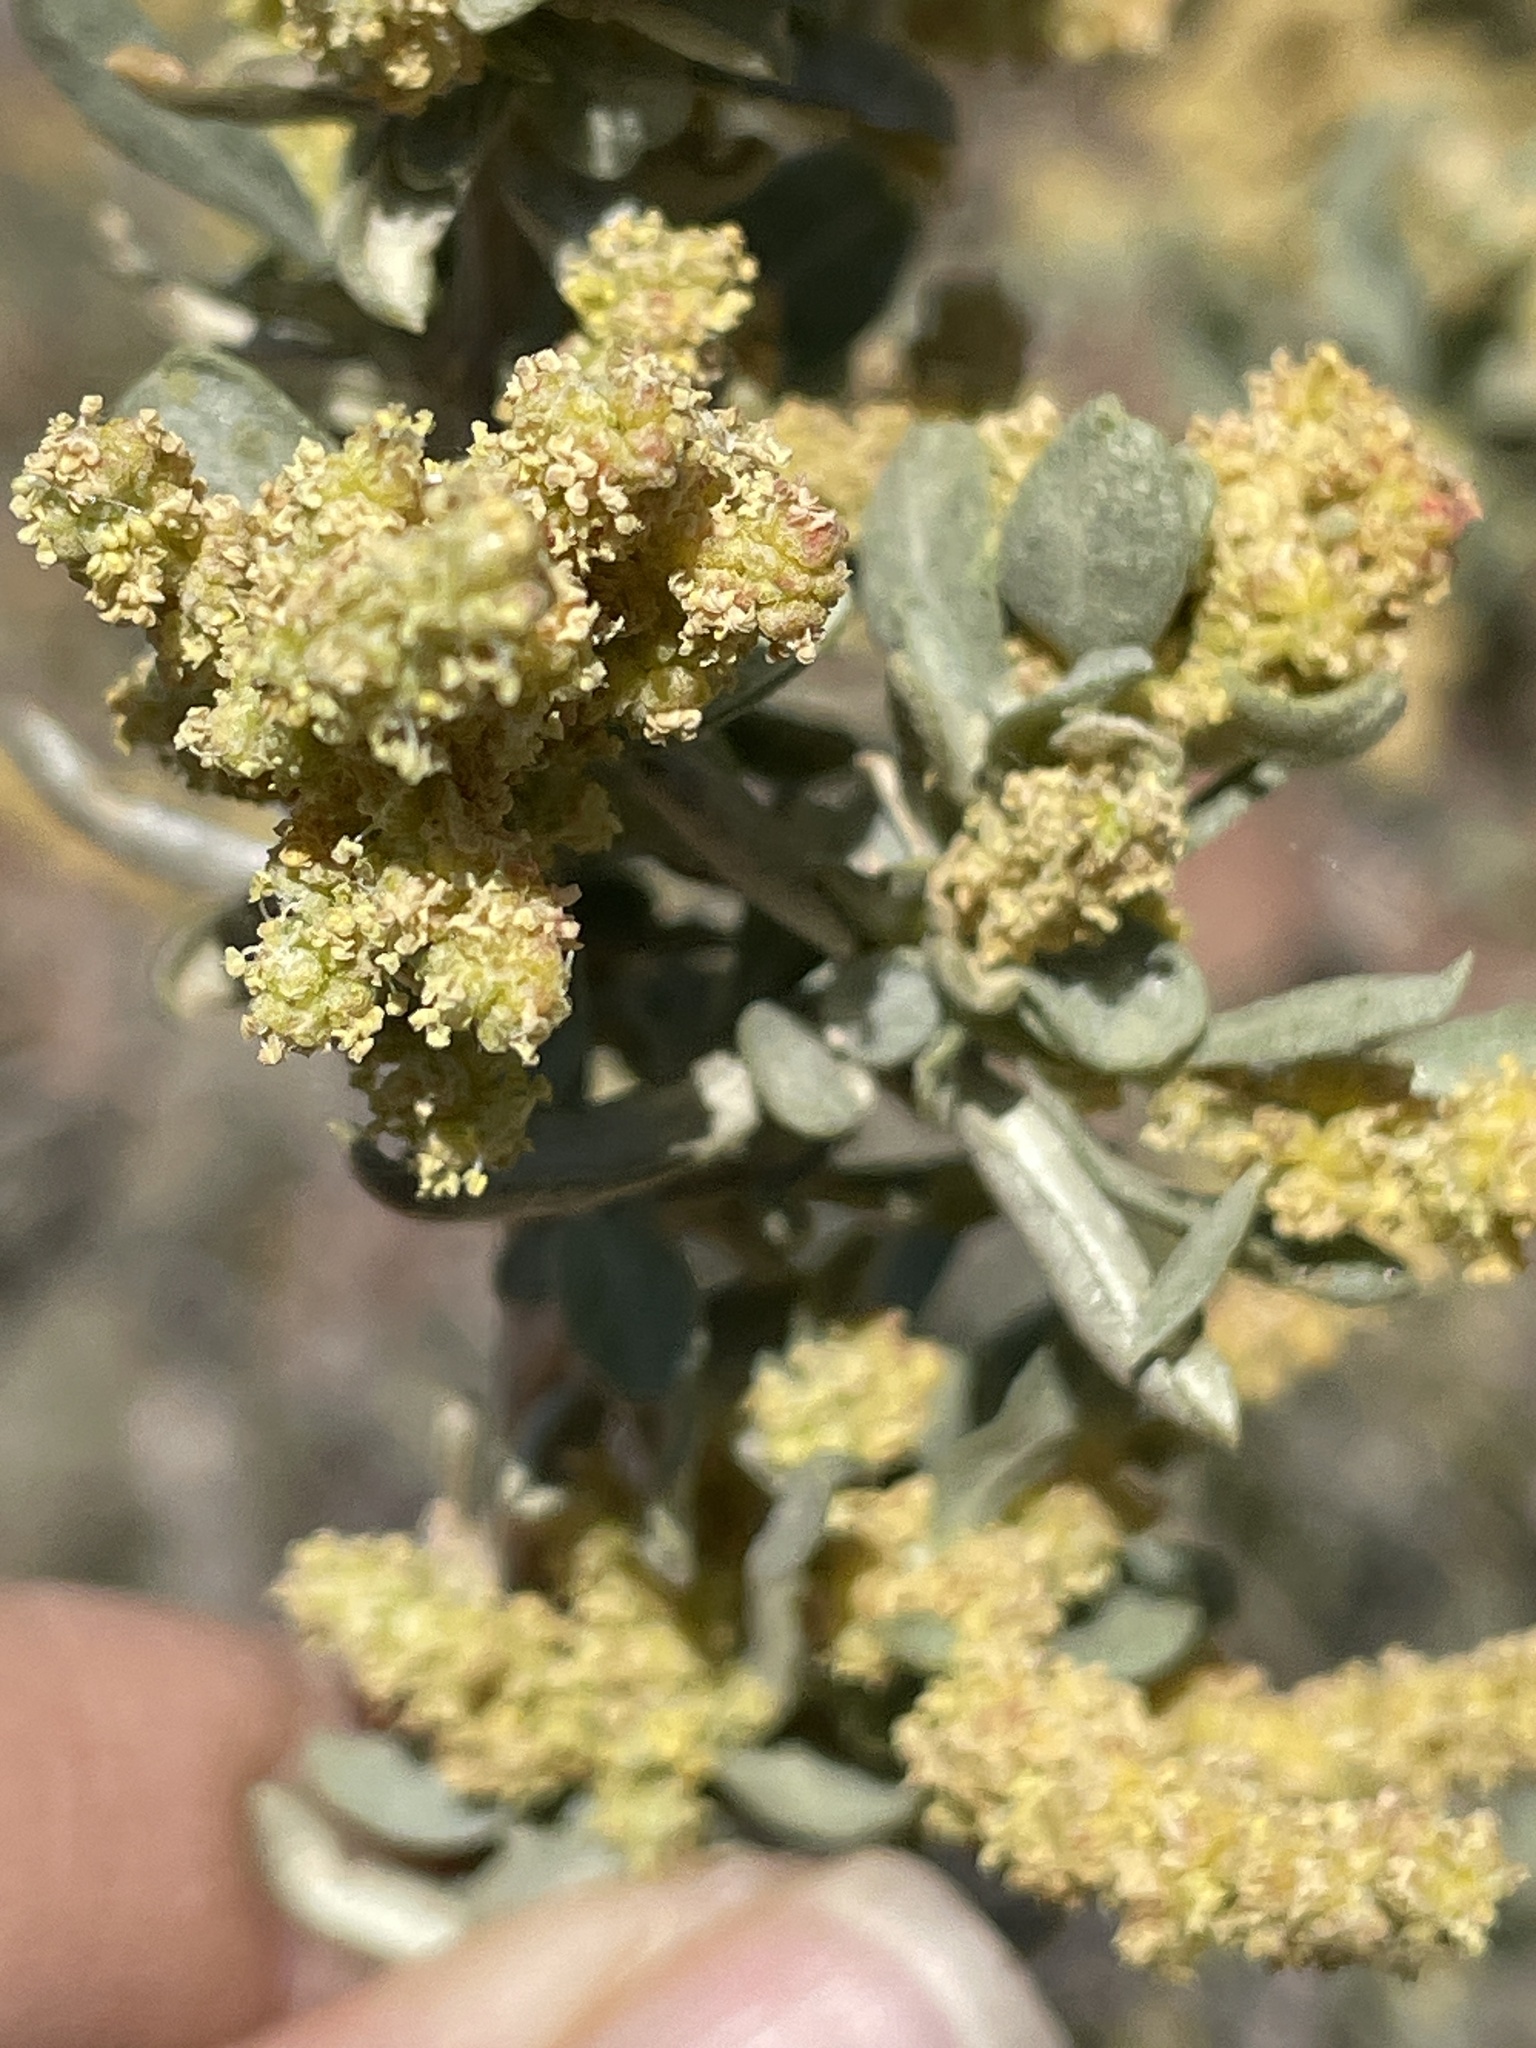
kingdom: Plantae
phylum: Tracheophyta
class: Magnoliopsida
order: Caryophyllales
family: Amaranthaceae
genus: Atriplex
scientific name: Atriplex canescens
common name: Four-wing saltbush
